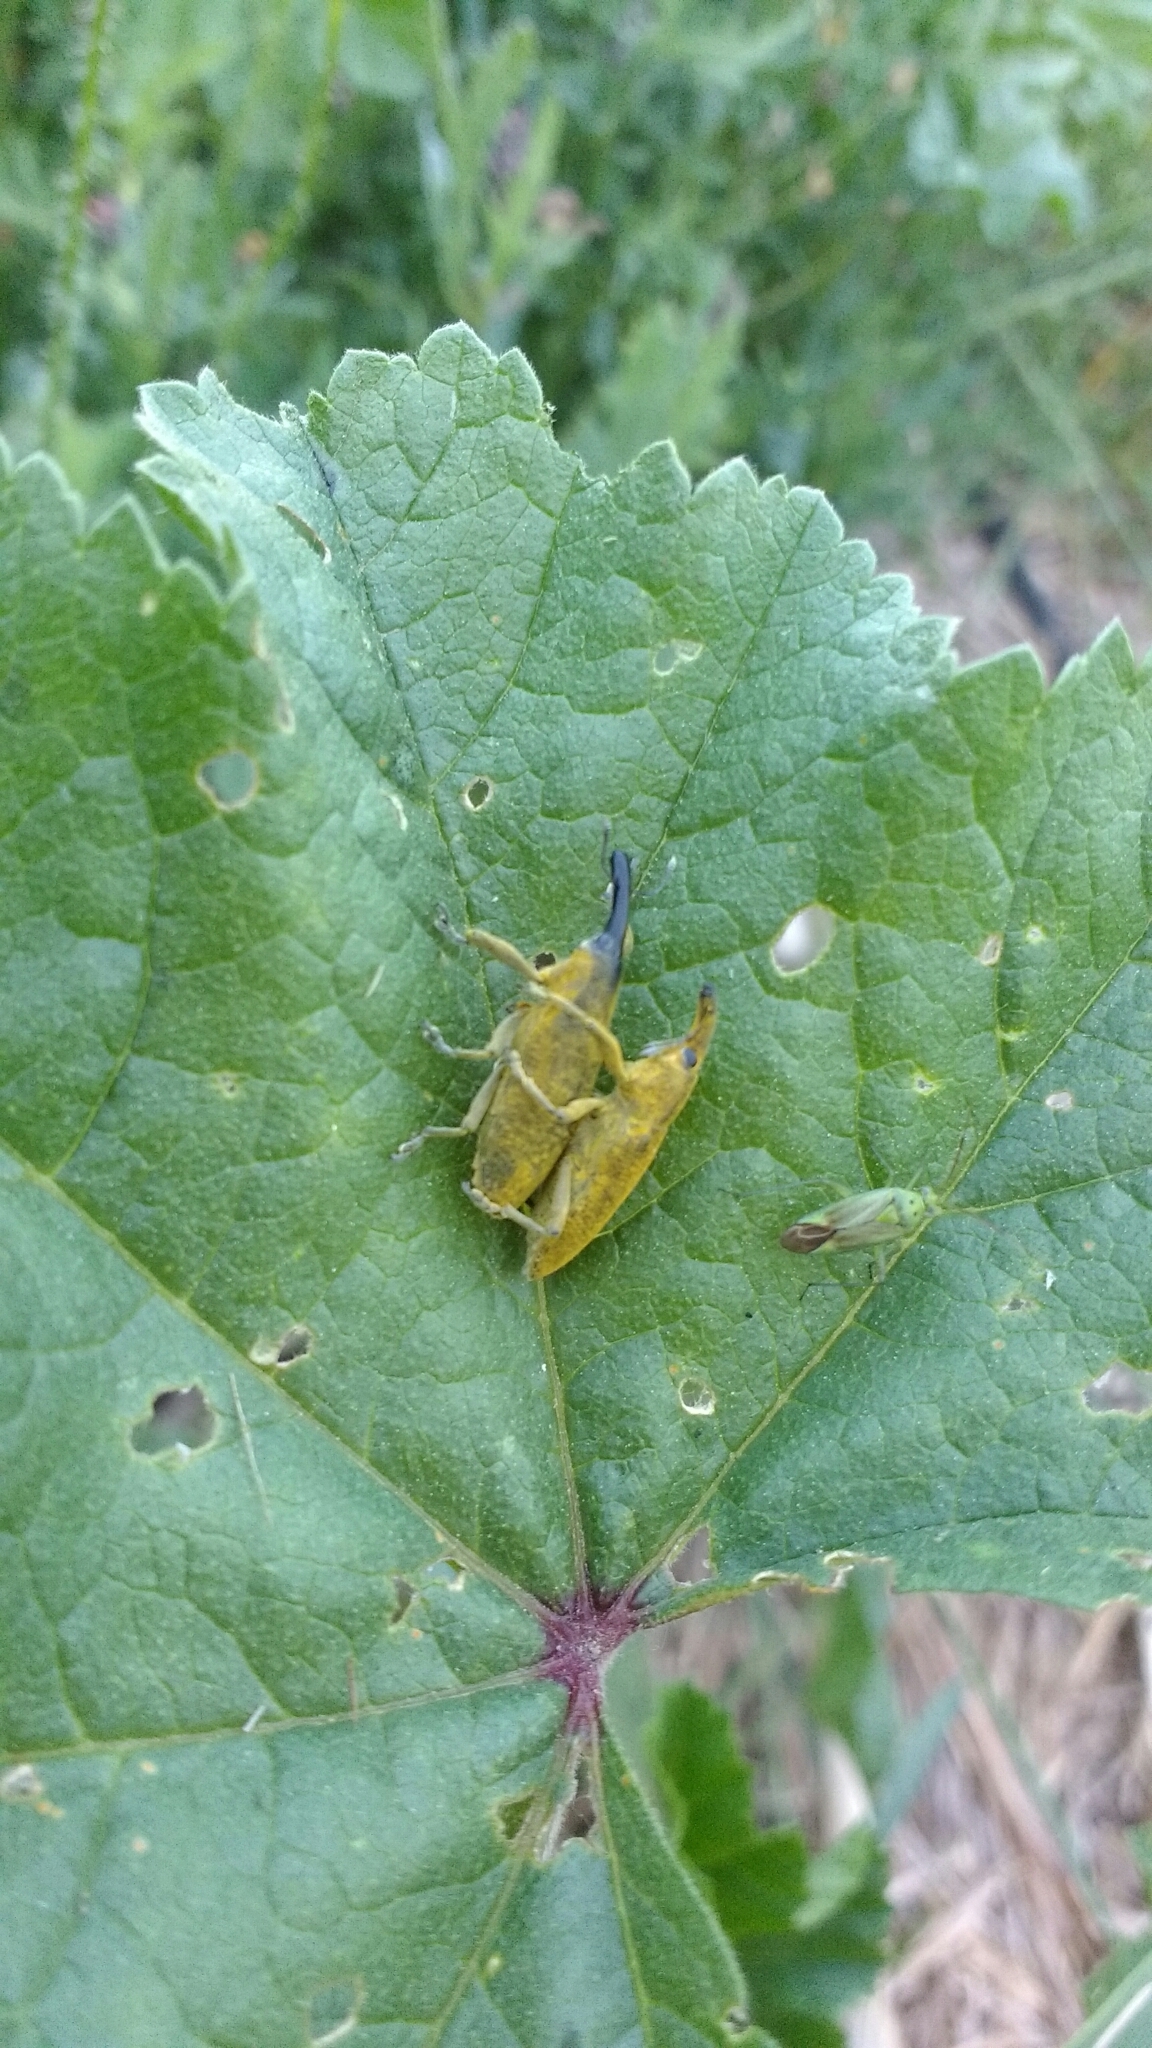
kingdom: Animalia
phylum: Arthropoda
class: Insecta
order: Coleoptera
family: Curculionidae
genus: Lixus
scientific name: Lixus pulverulentus
